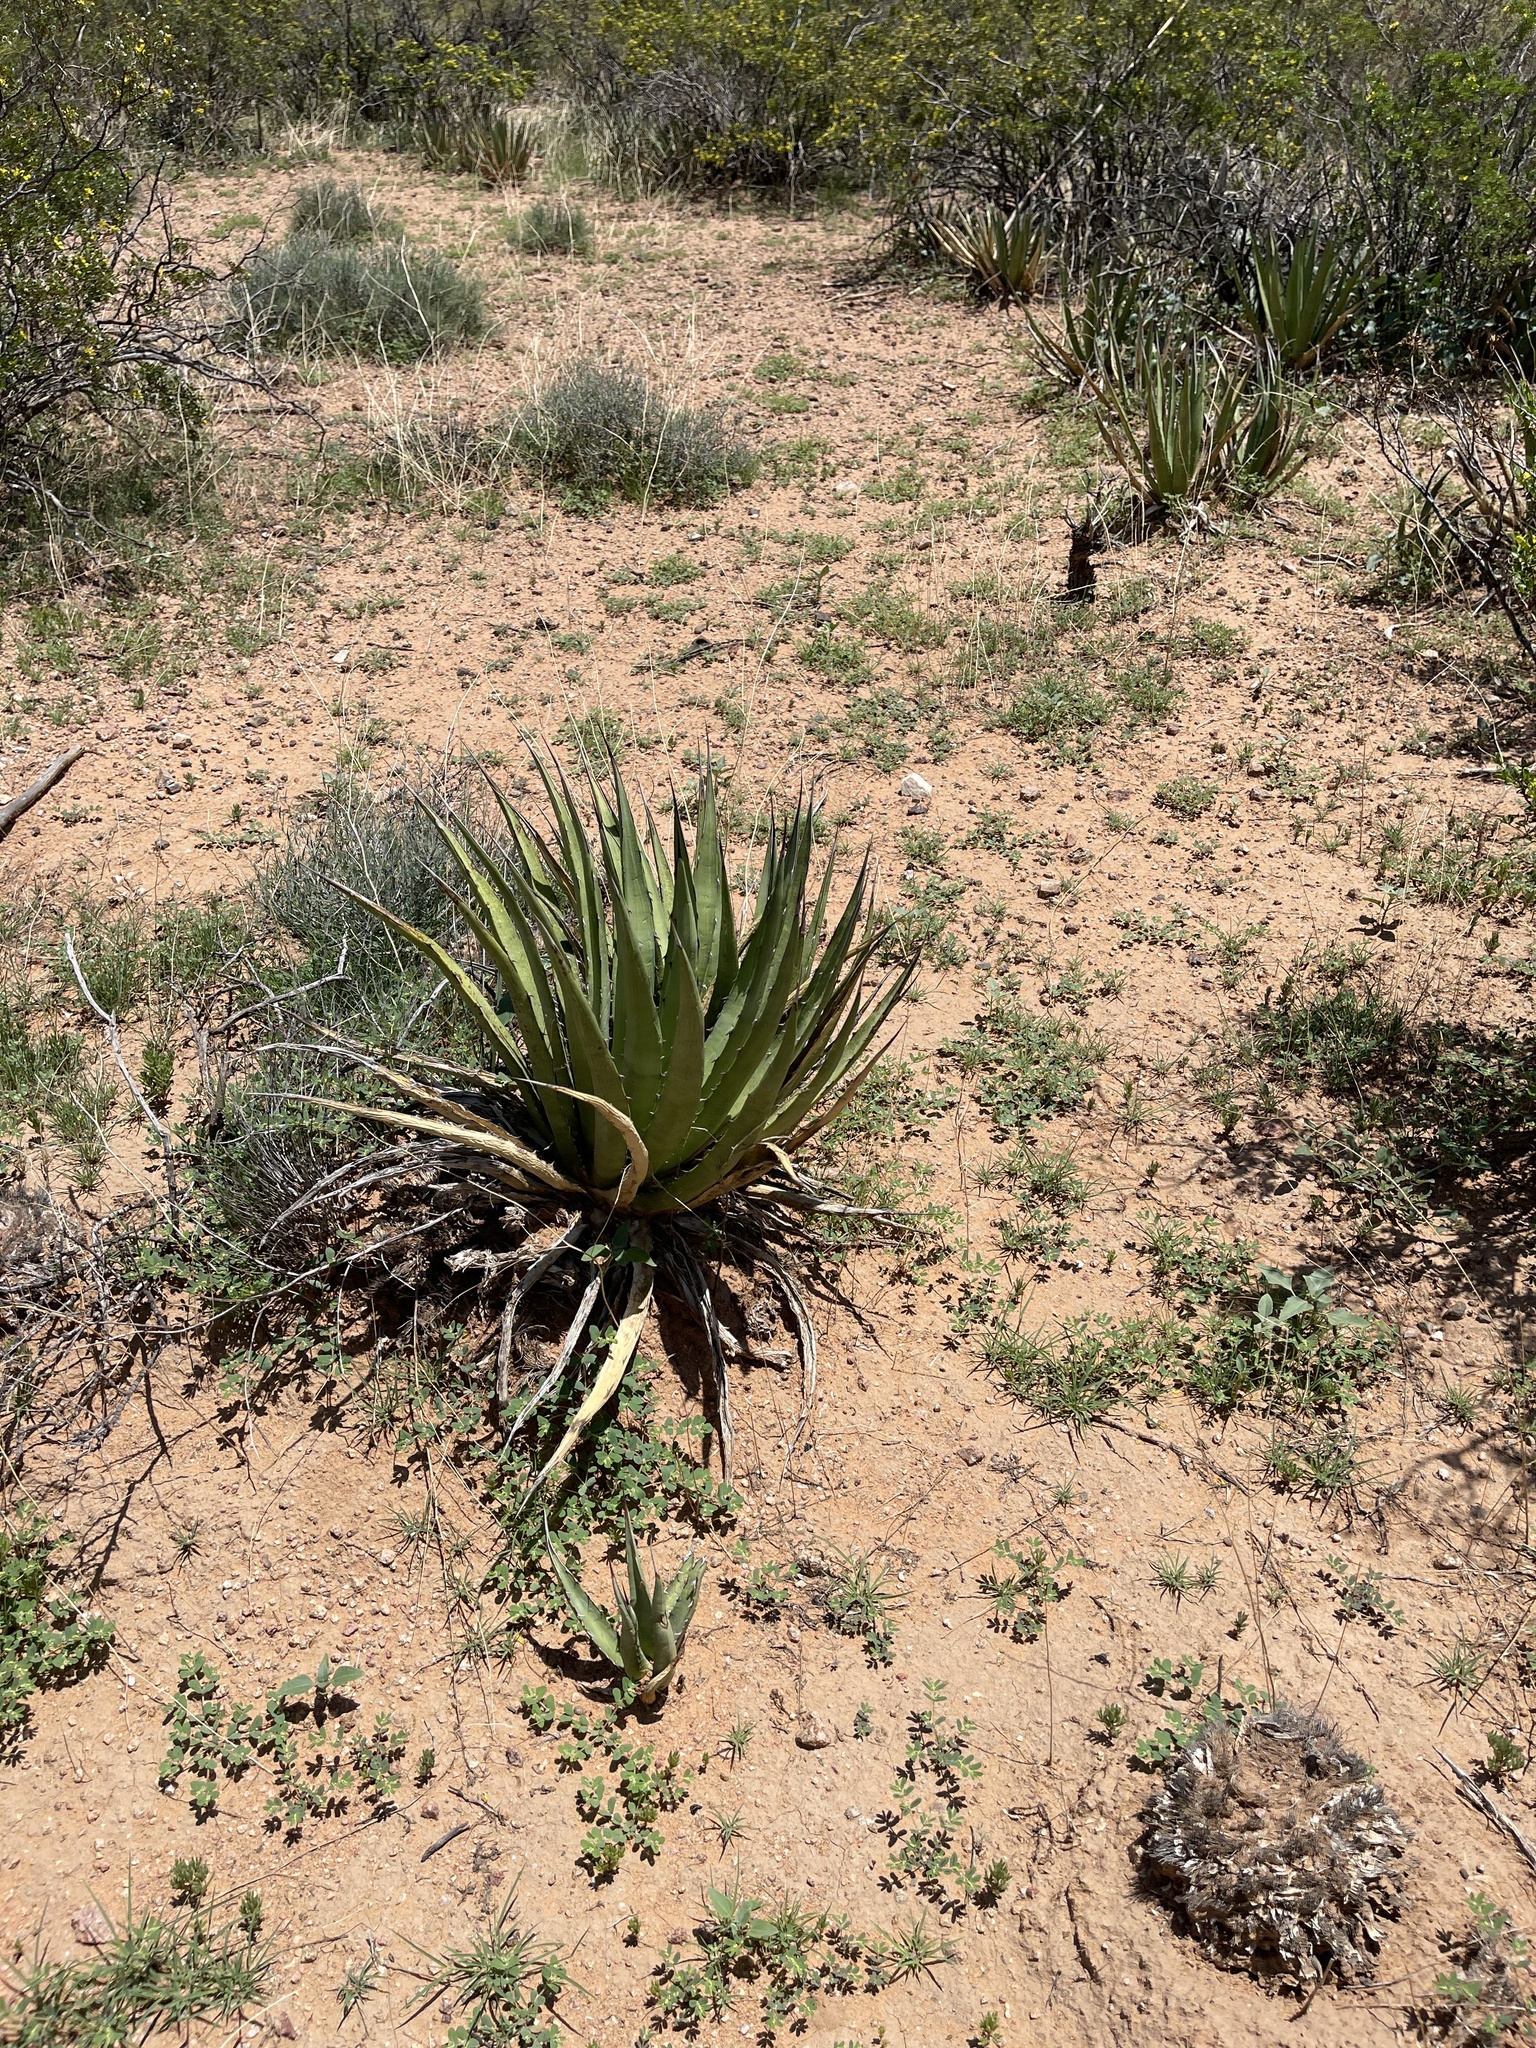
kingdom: Plantae
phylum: Tracheophyta
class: Liliopsida
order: Asparagales
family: Asparagaceae
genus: Agave
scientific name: Agave lechuguilla
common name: Lecheguilla agave
